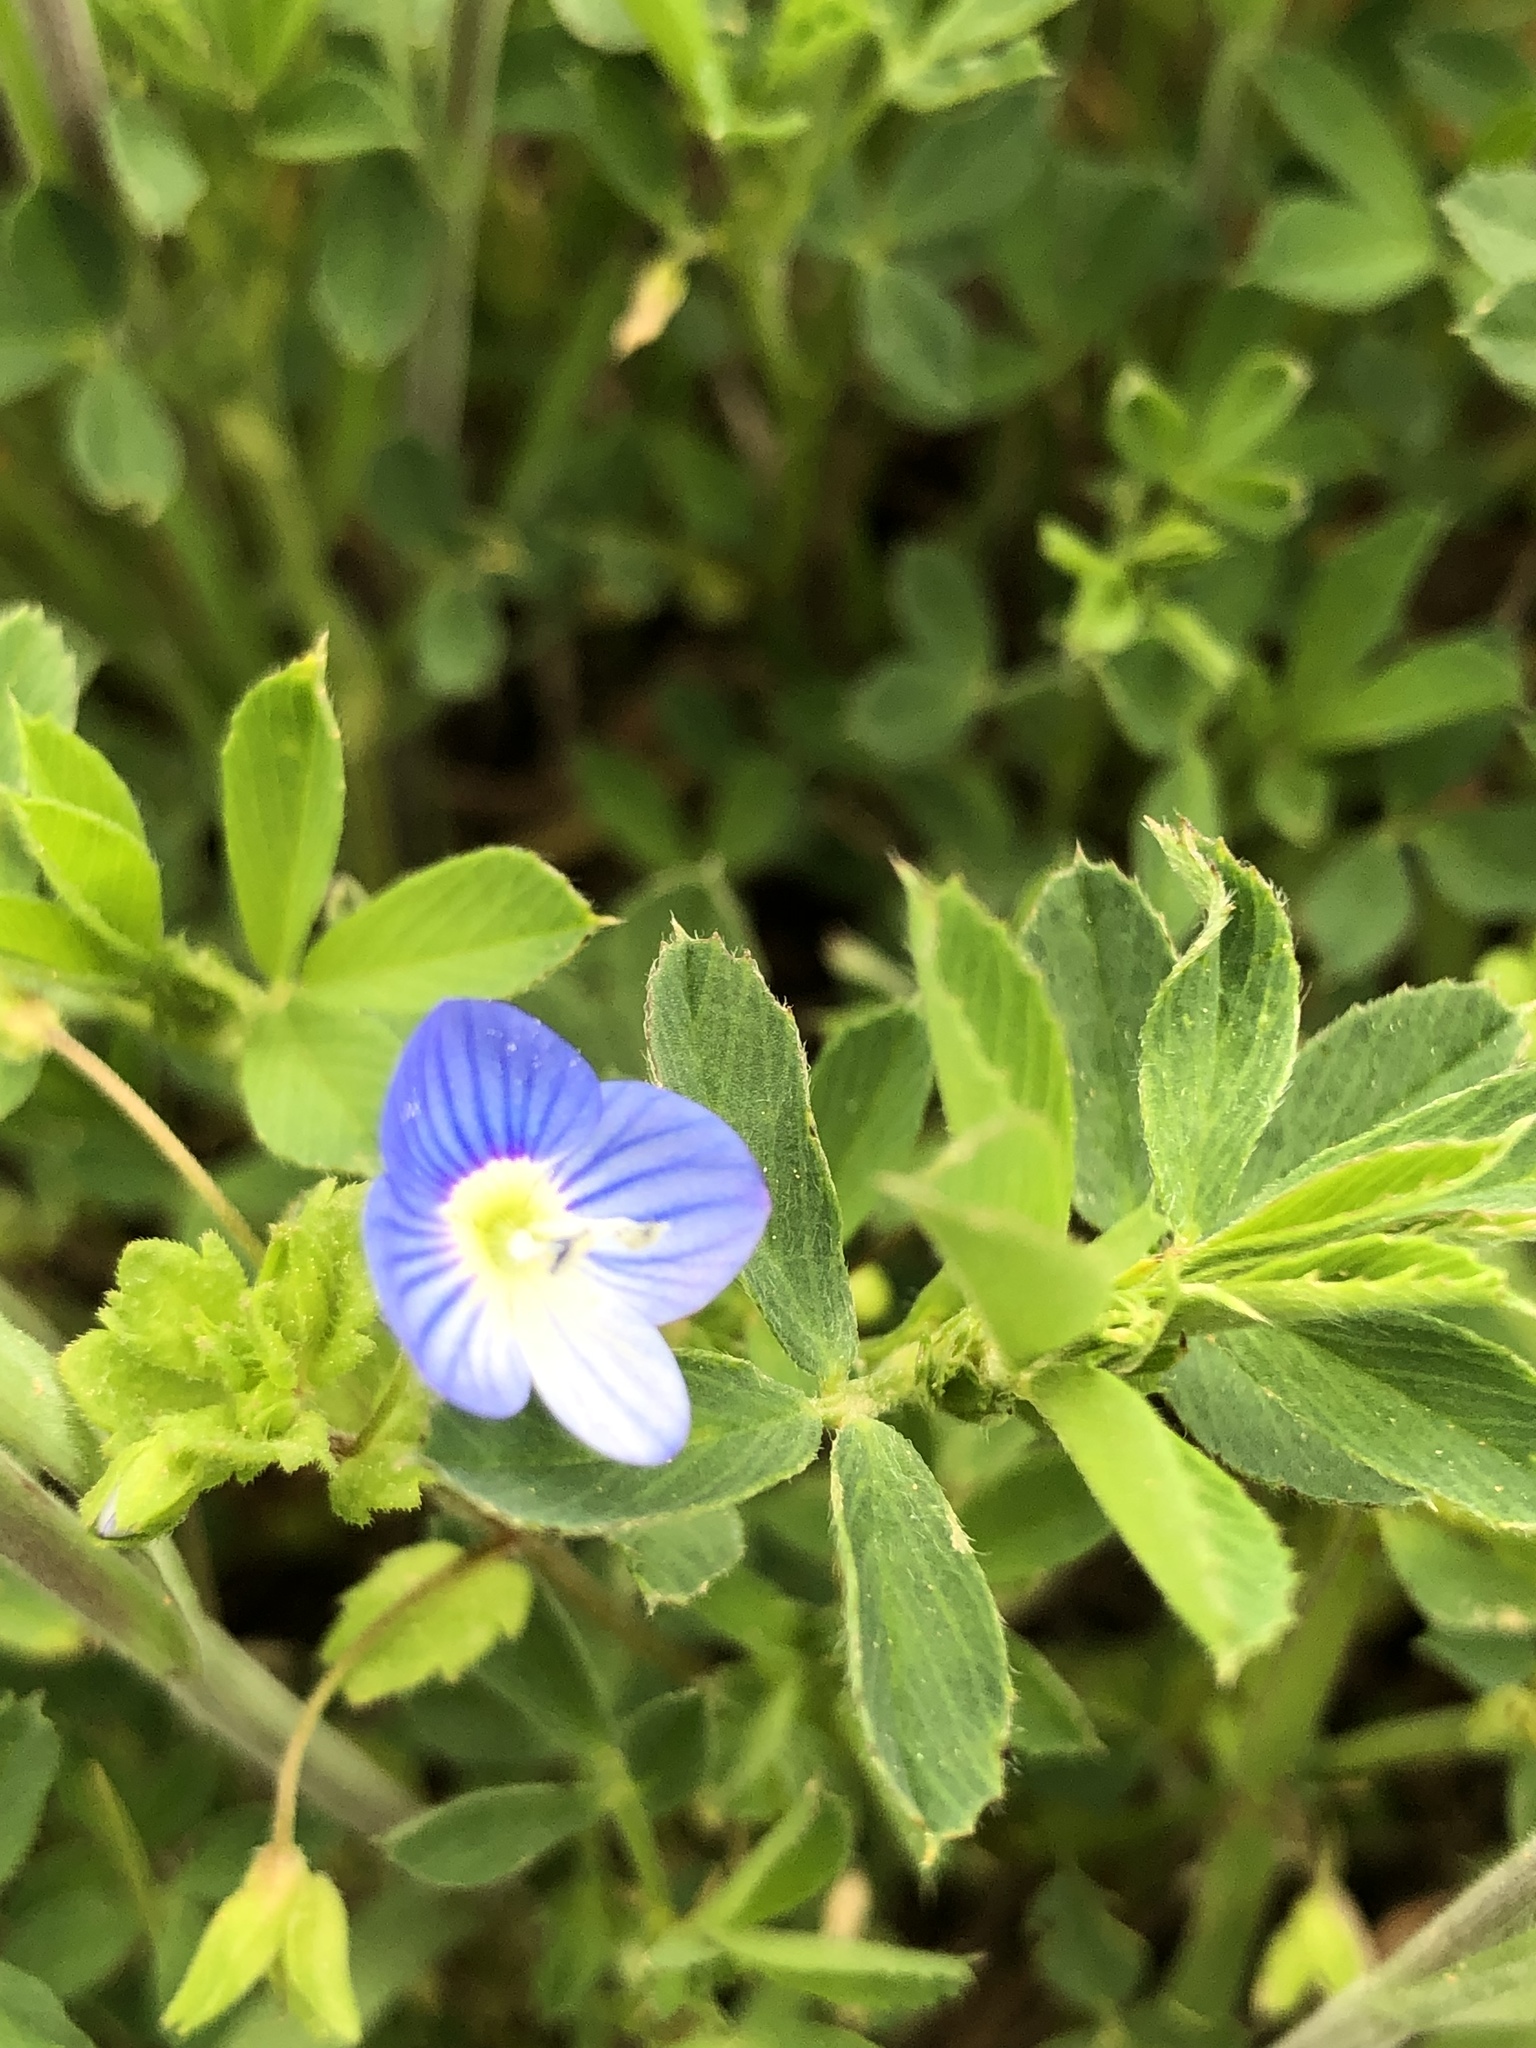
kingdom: Plantae
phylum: Tracheophyta
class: Magnoliopsida
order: Lamiales
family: Plantaginaceae
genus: Veronica
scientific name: Veronica persica
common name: Common field-speedwell
